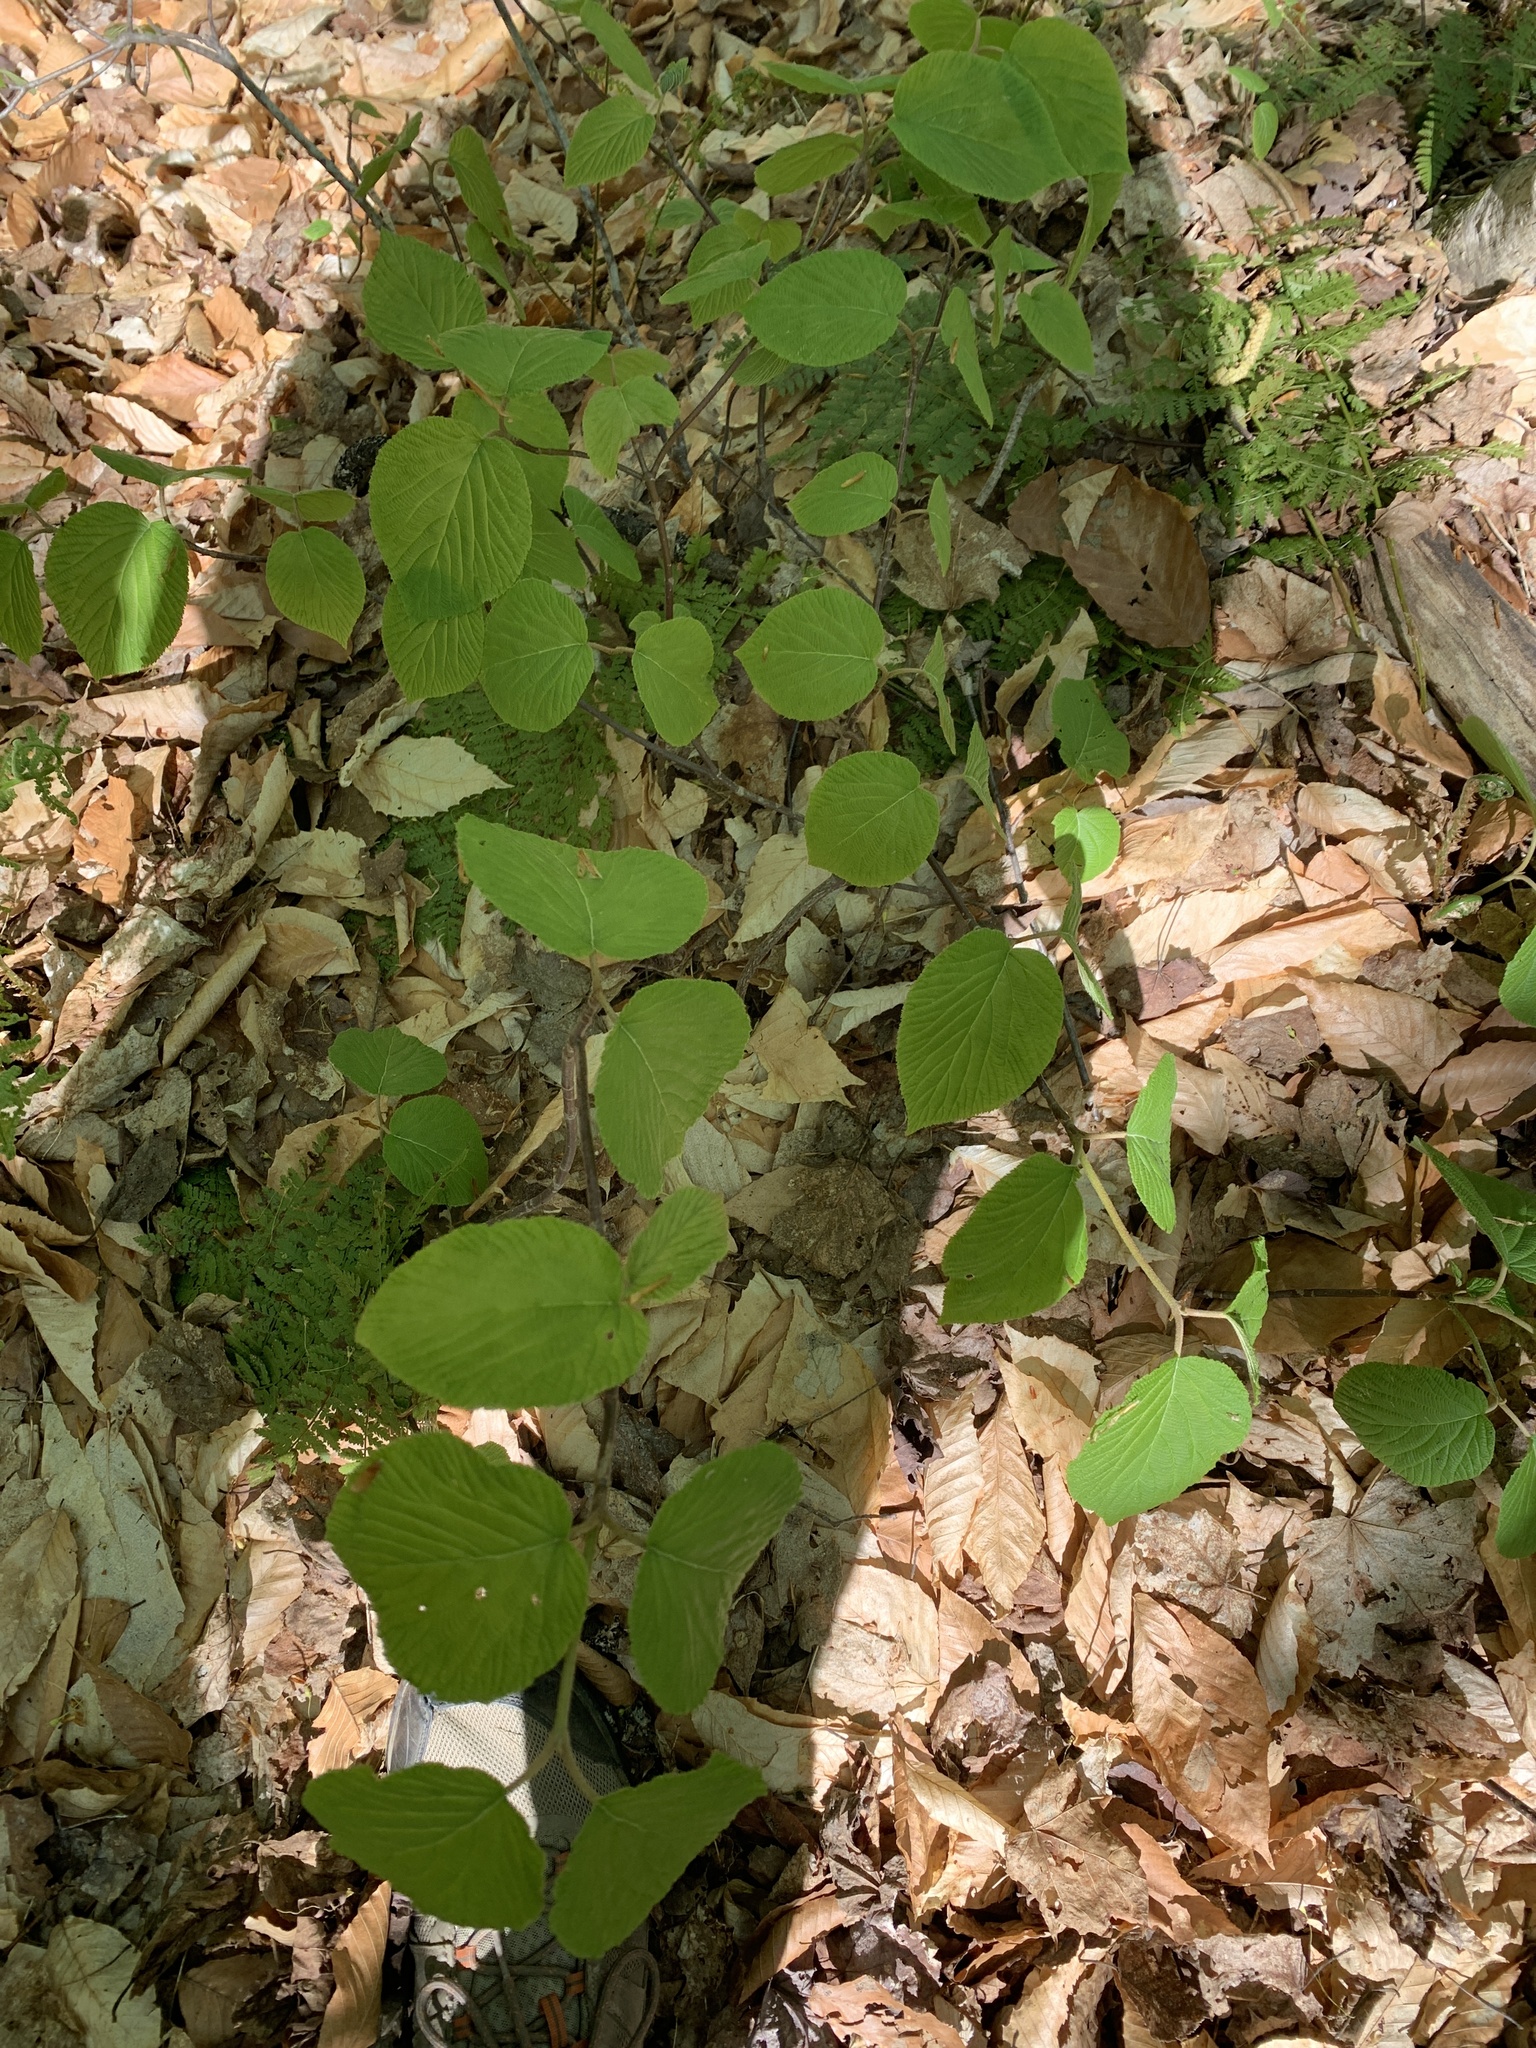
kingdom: Plantae
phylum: Tracheophyta
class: Magnoliopsida
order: Dipsacales
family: Viburnaceae
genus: Viburnum
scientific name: Viburnum lantanoides
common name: Hobblebush
